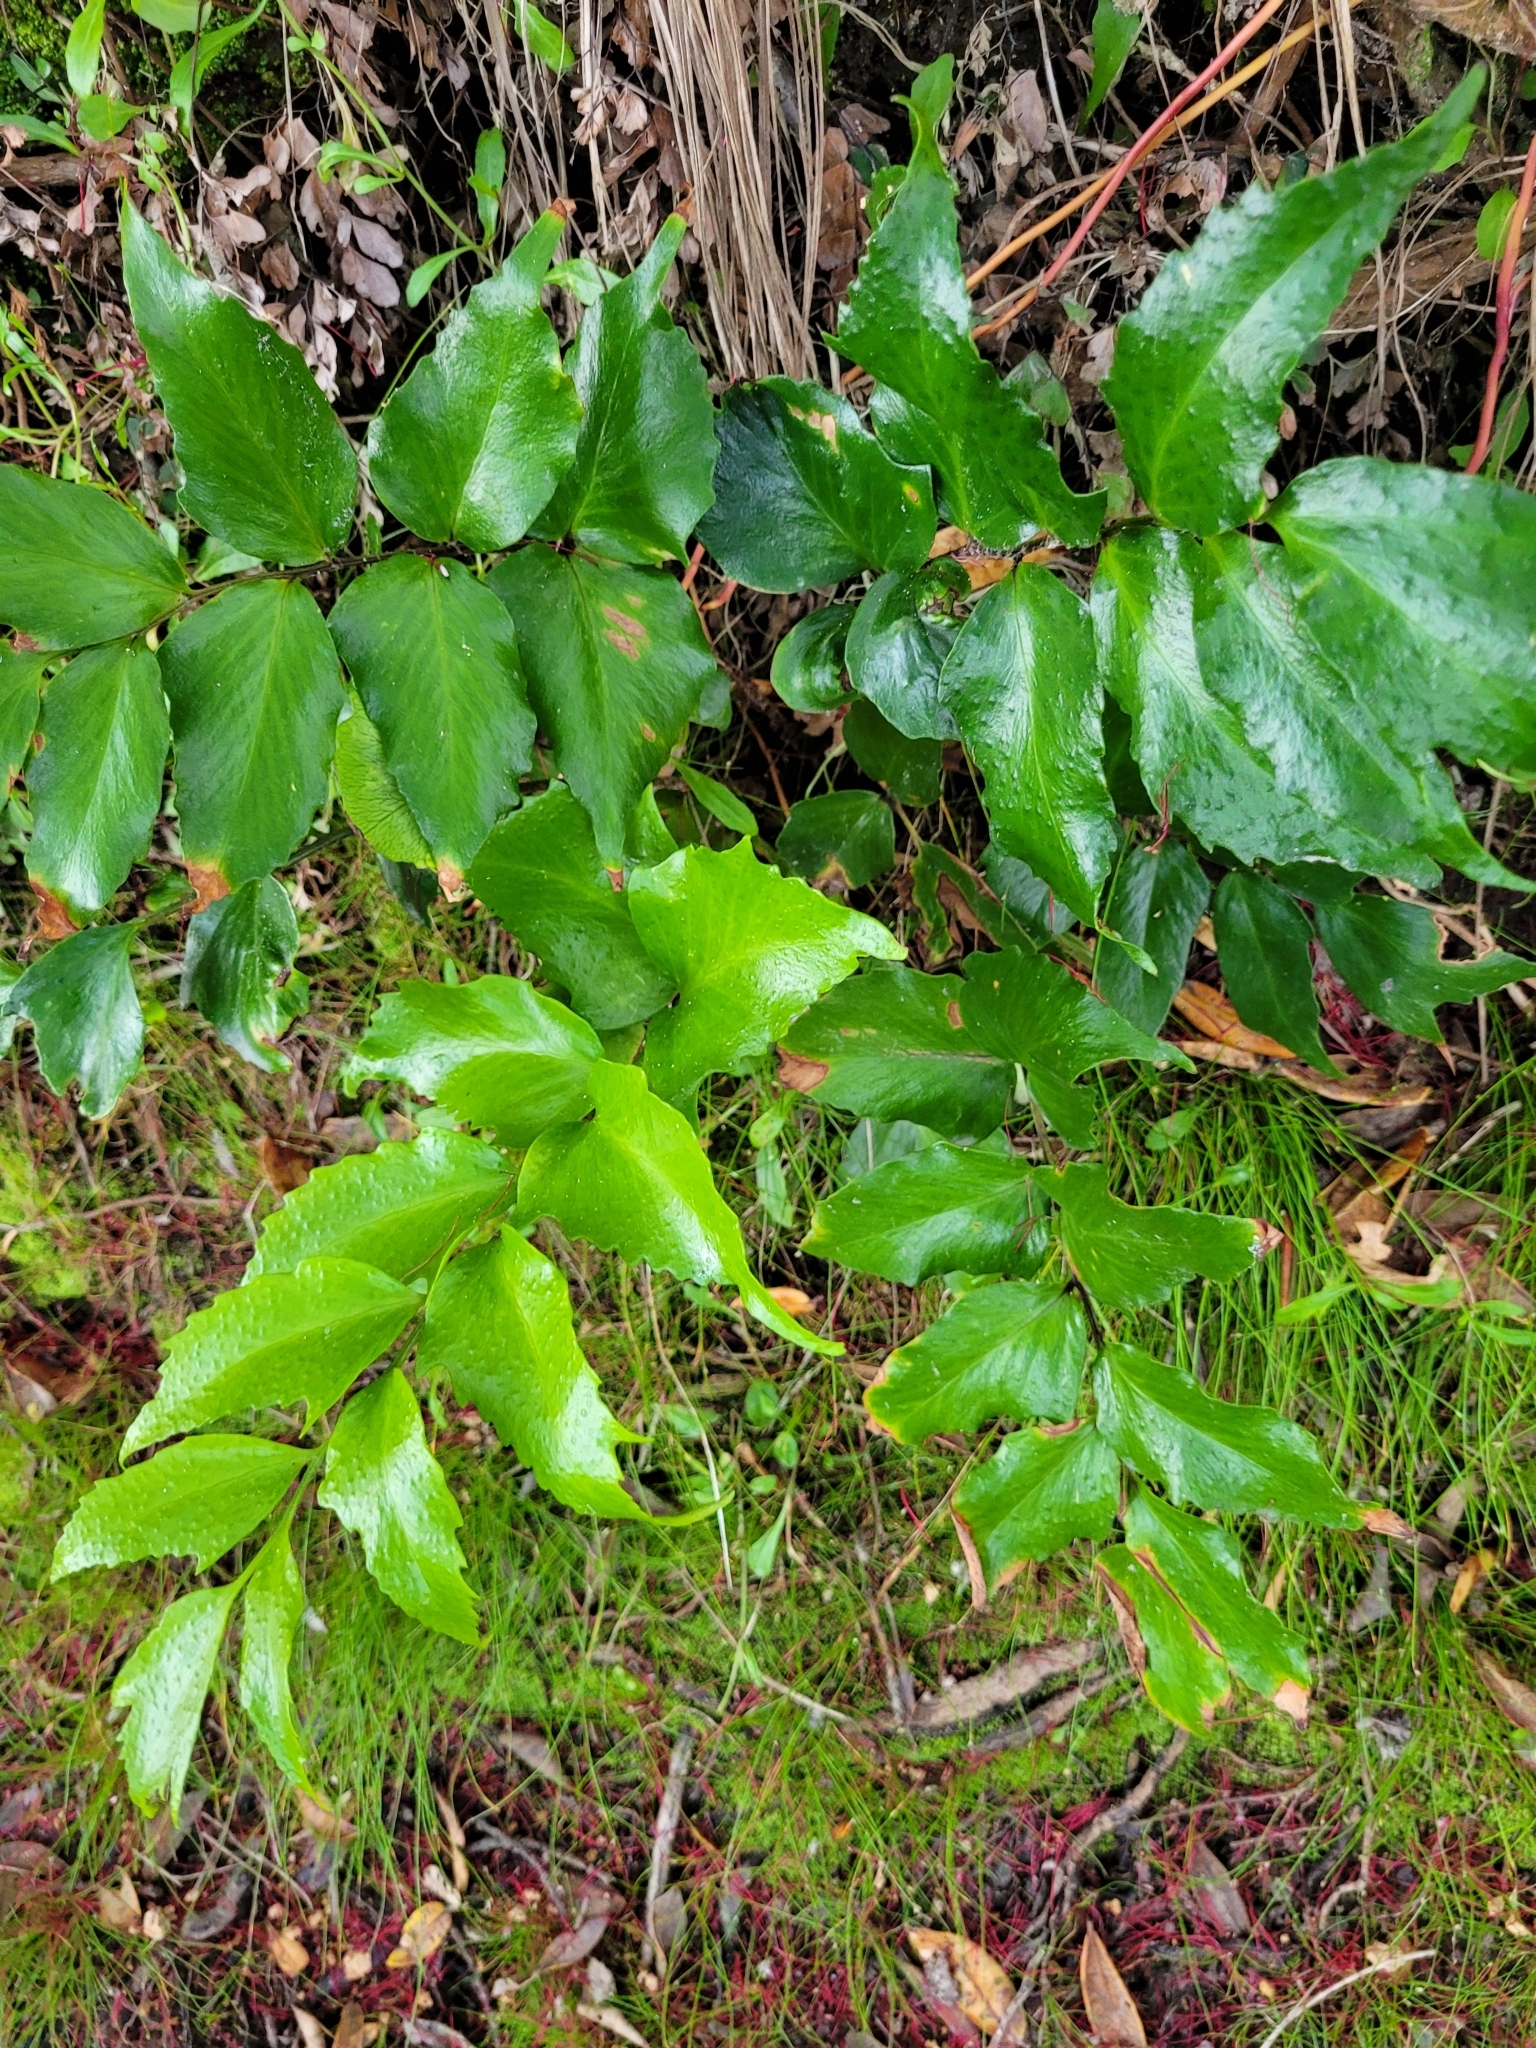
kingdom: Plantae
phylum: Tracheophyta
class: Polypodiopsida
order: Polypodiales
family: Dryopteridaceae
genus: Cyrtomium
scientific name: Cyrtomium falcatum
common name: House holly-fern
